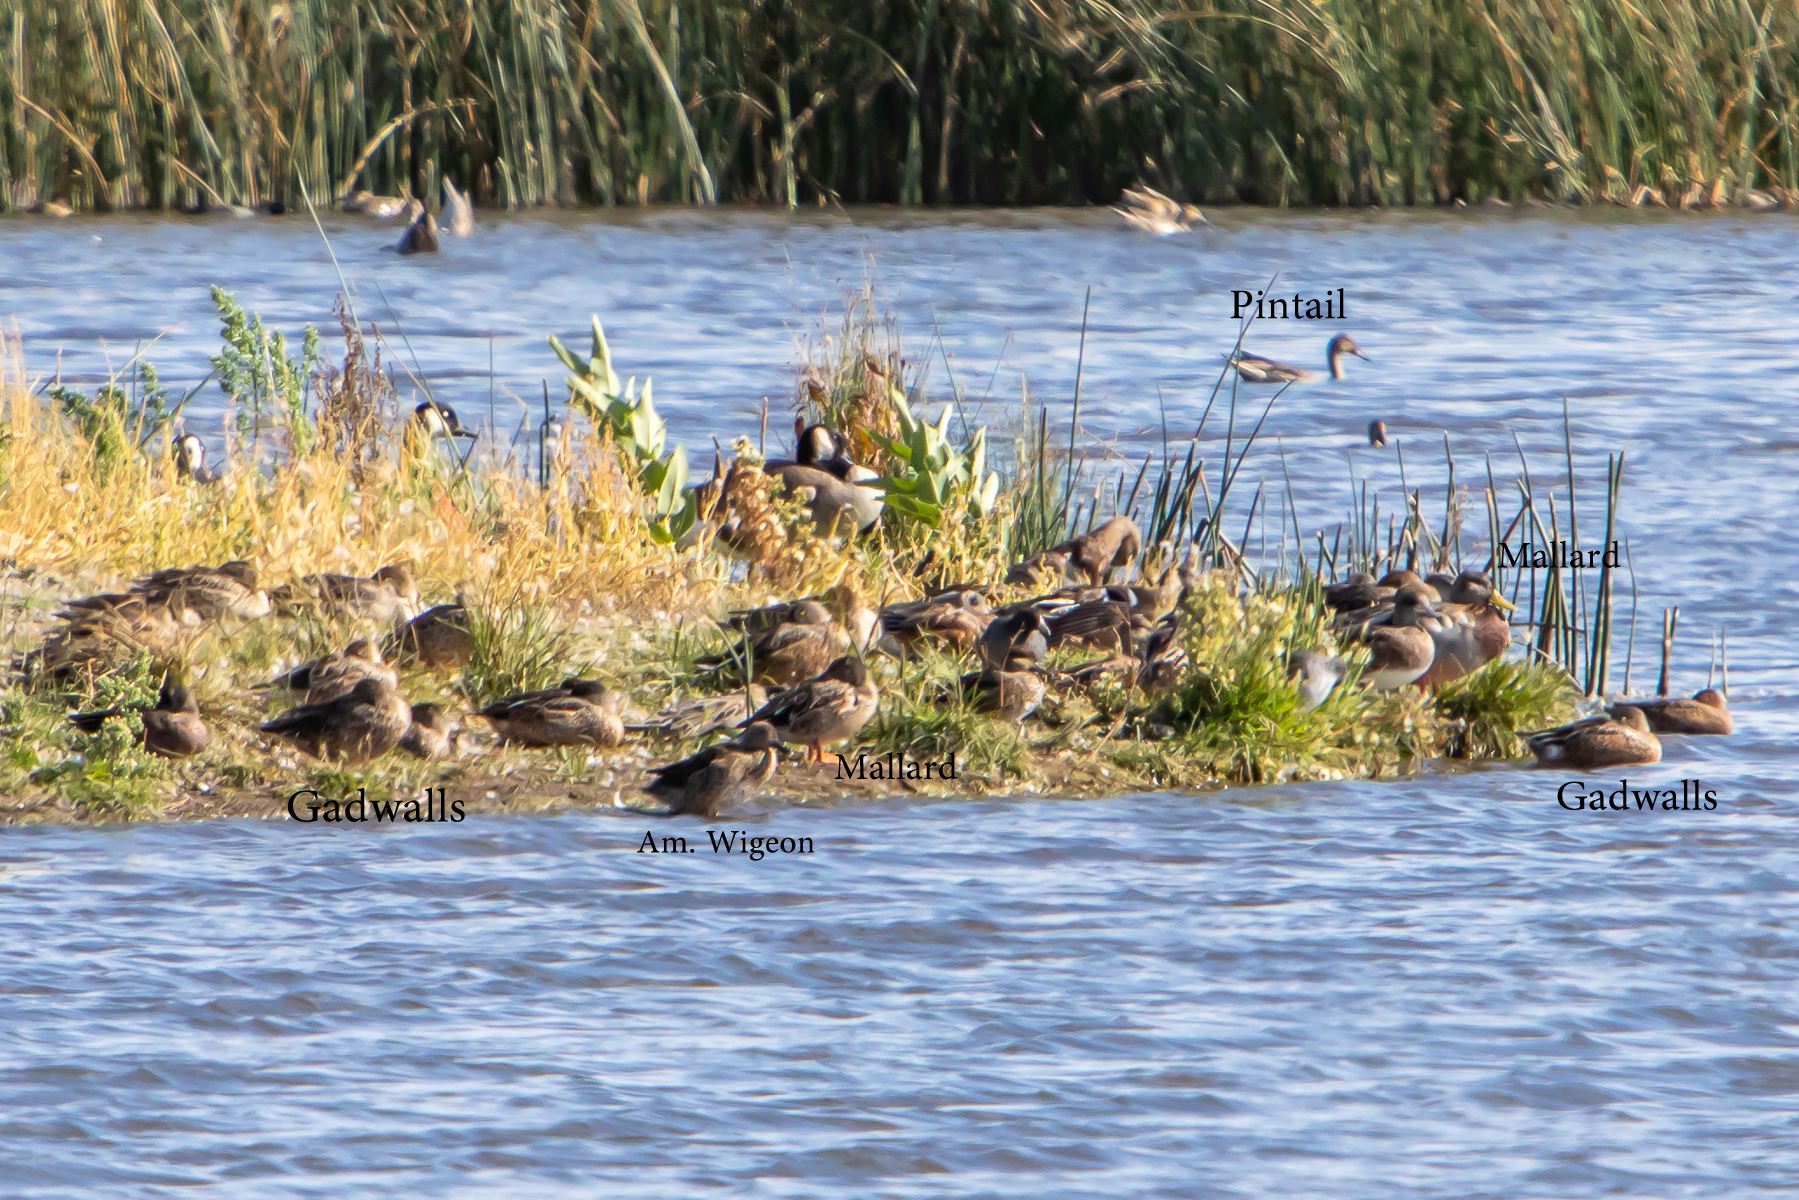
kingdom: Animalia
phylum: Chordata
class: Aves
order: Anseriformes
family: Anatidae
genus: Anas
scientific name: Anas platyrhynchos
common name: Mallard
